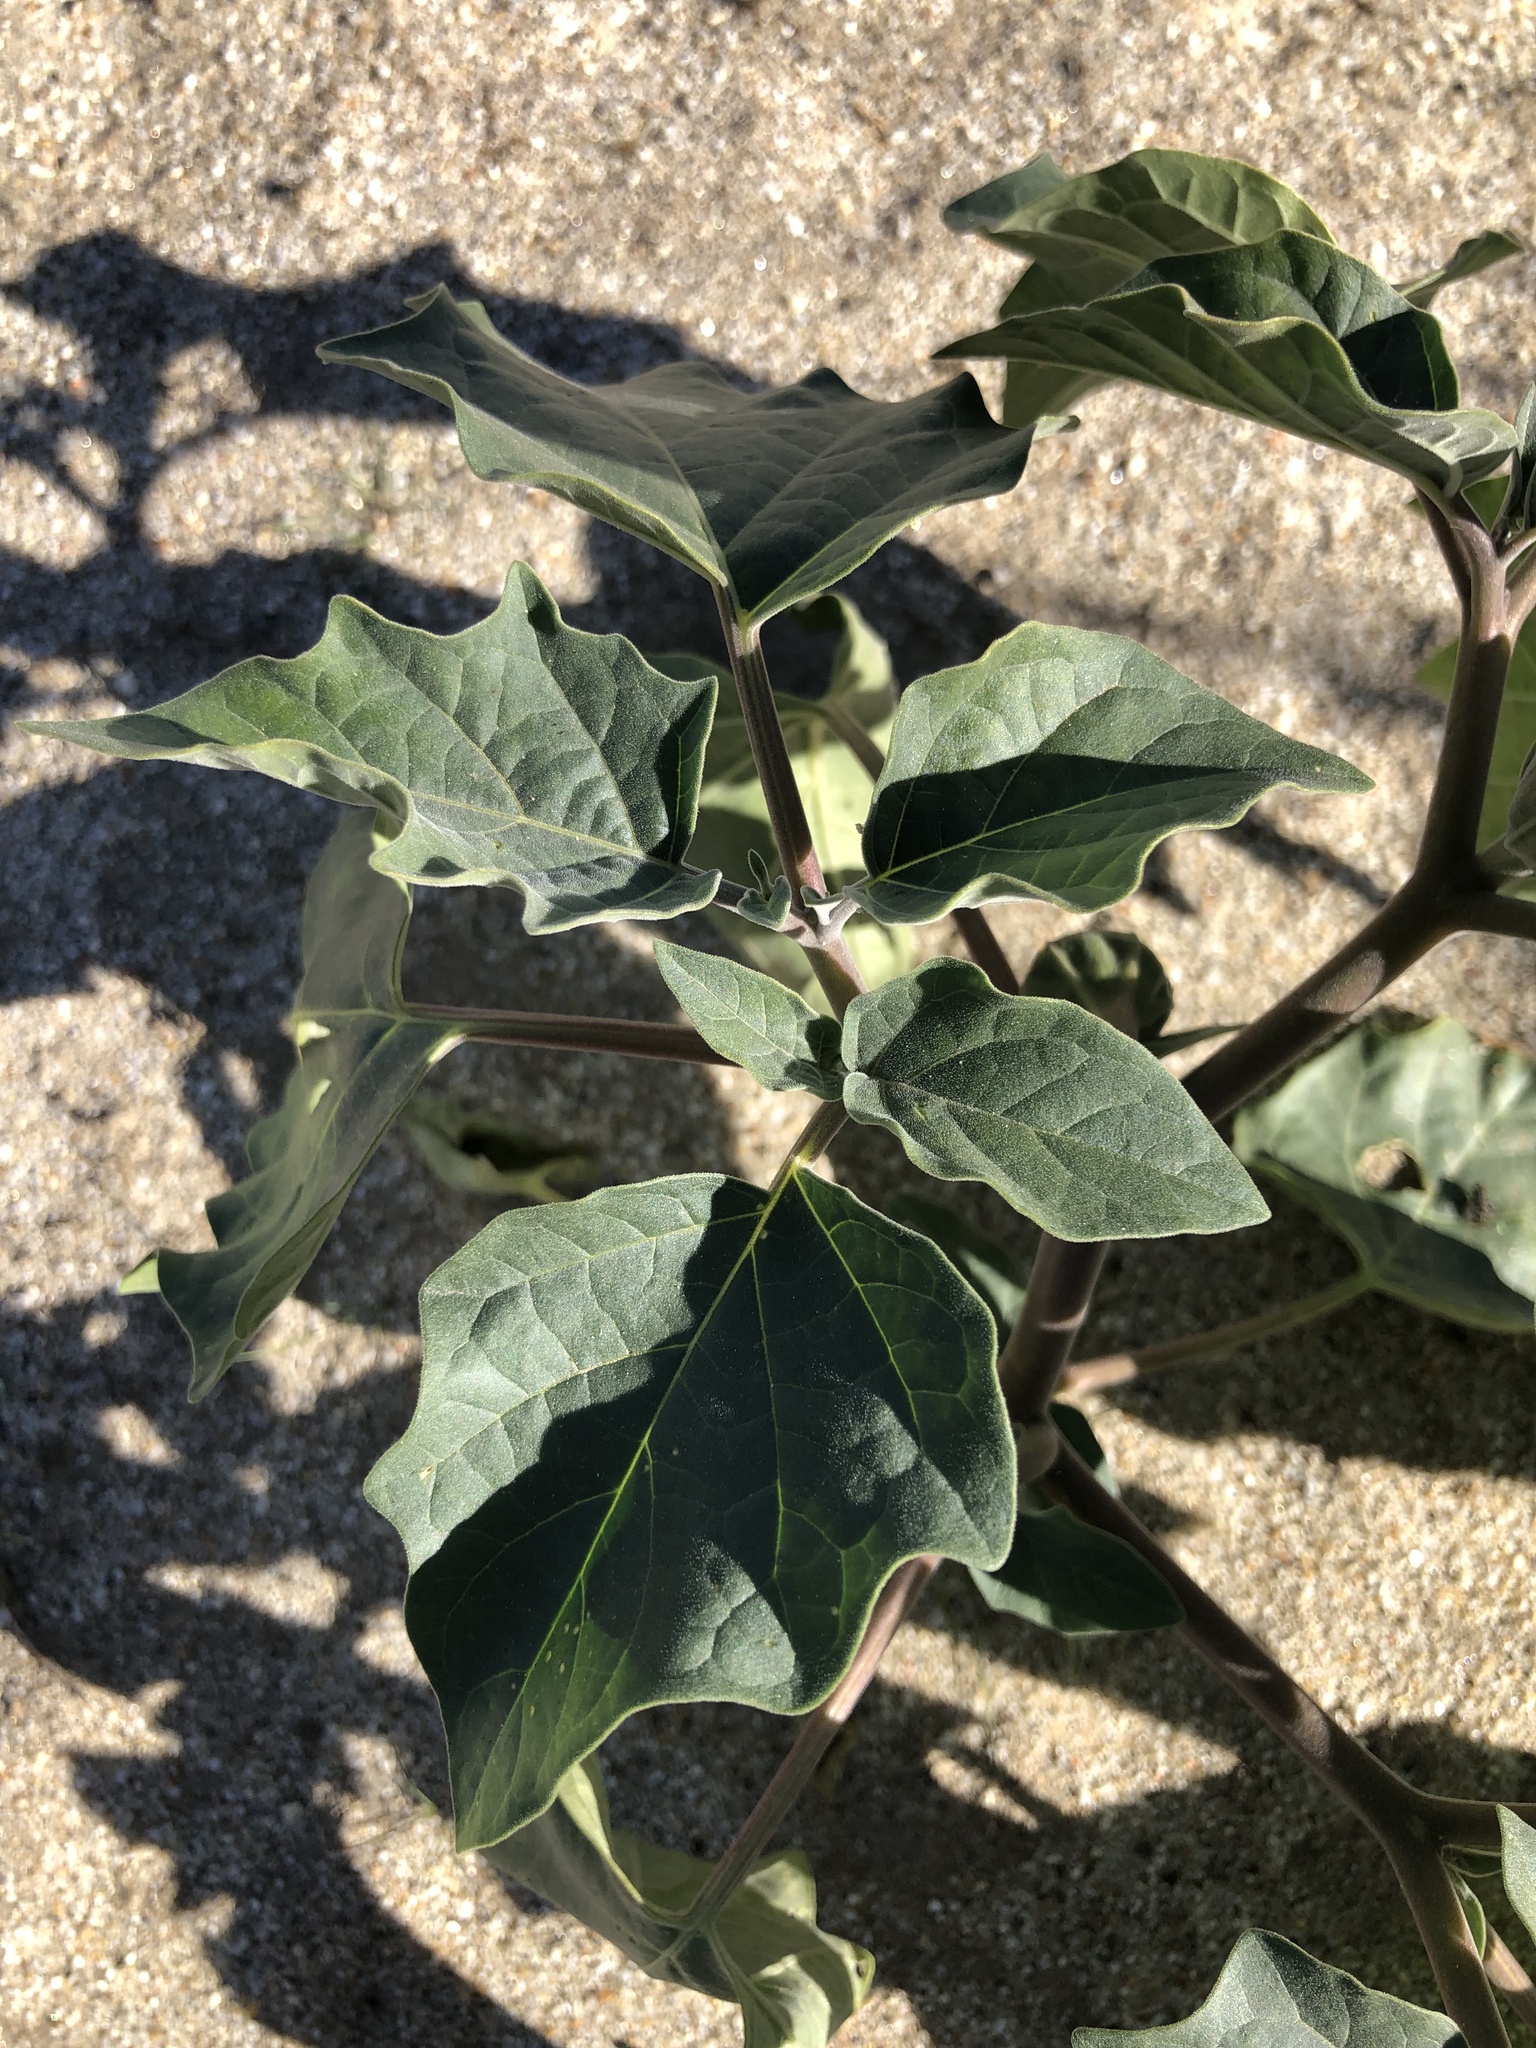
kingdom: Plantae
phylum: Tracheophyta
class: Magnoliopsida
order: Solanales
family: Solanaceae
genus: Datura
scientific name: Datura wrightii
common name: Sacred thorn-apple
